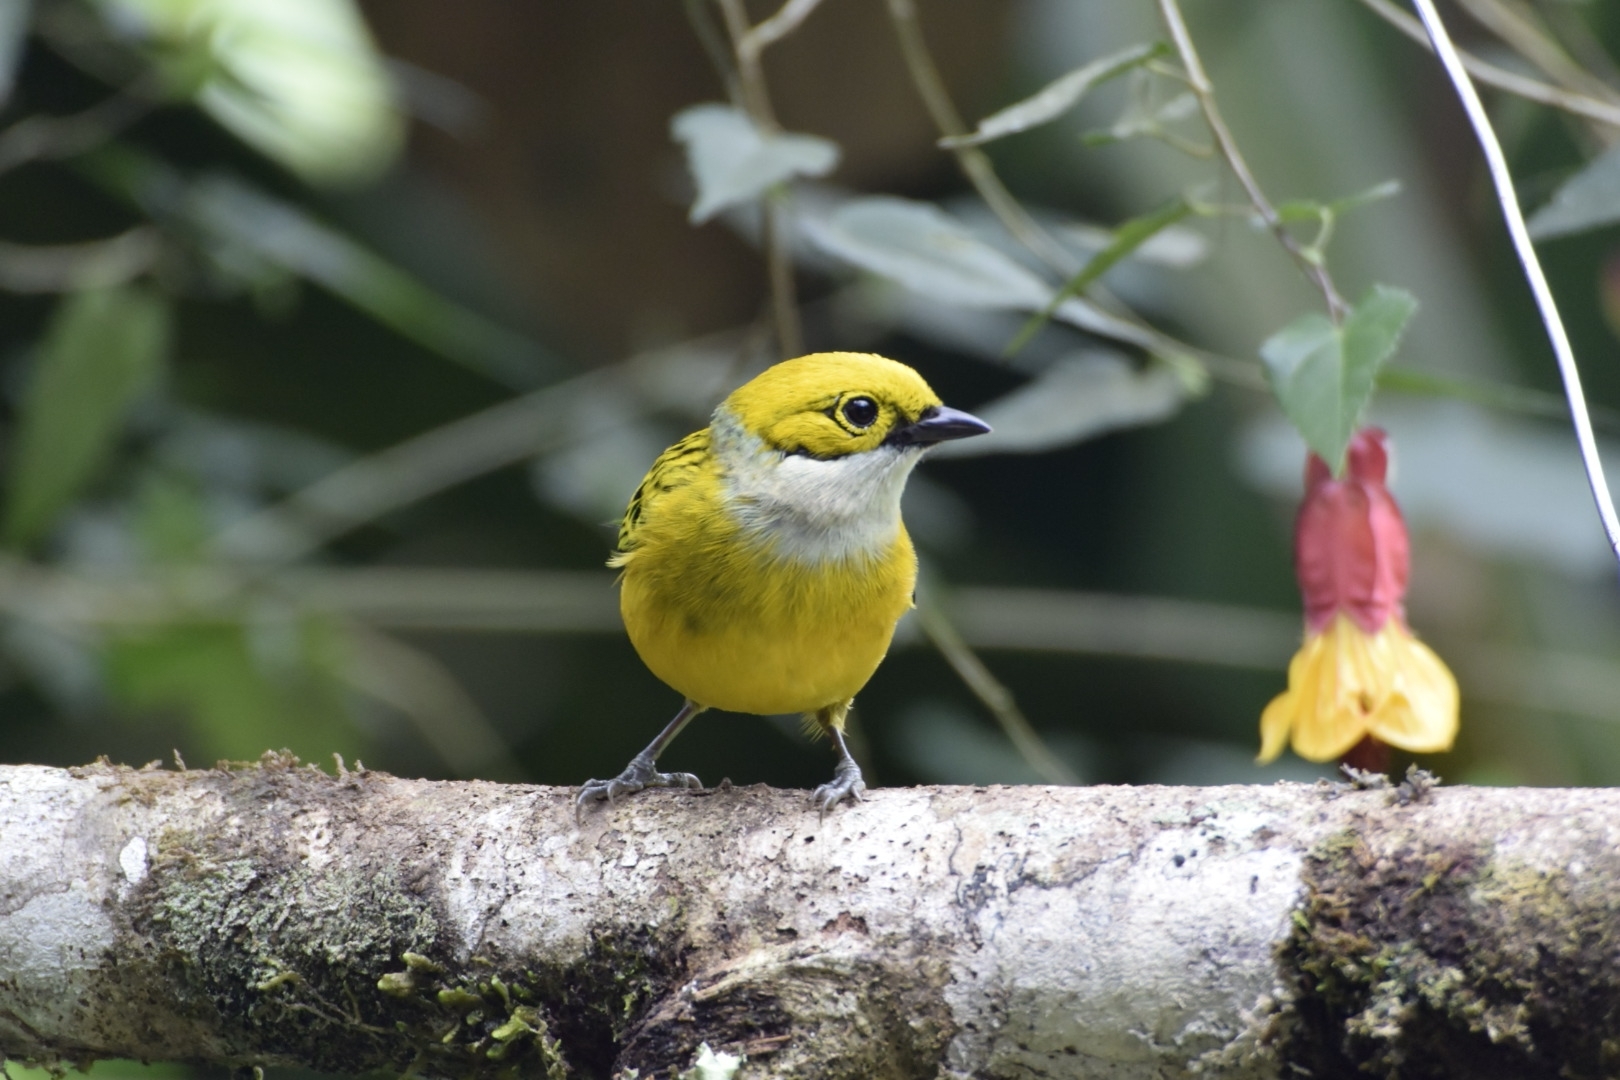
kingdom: Animalia
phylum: Chordata
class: Aves
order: Passeriformes
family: Thraupidae
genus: Tangara
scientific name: Tangara icterocephala
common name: Silver-throated tanager
